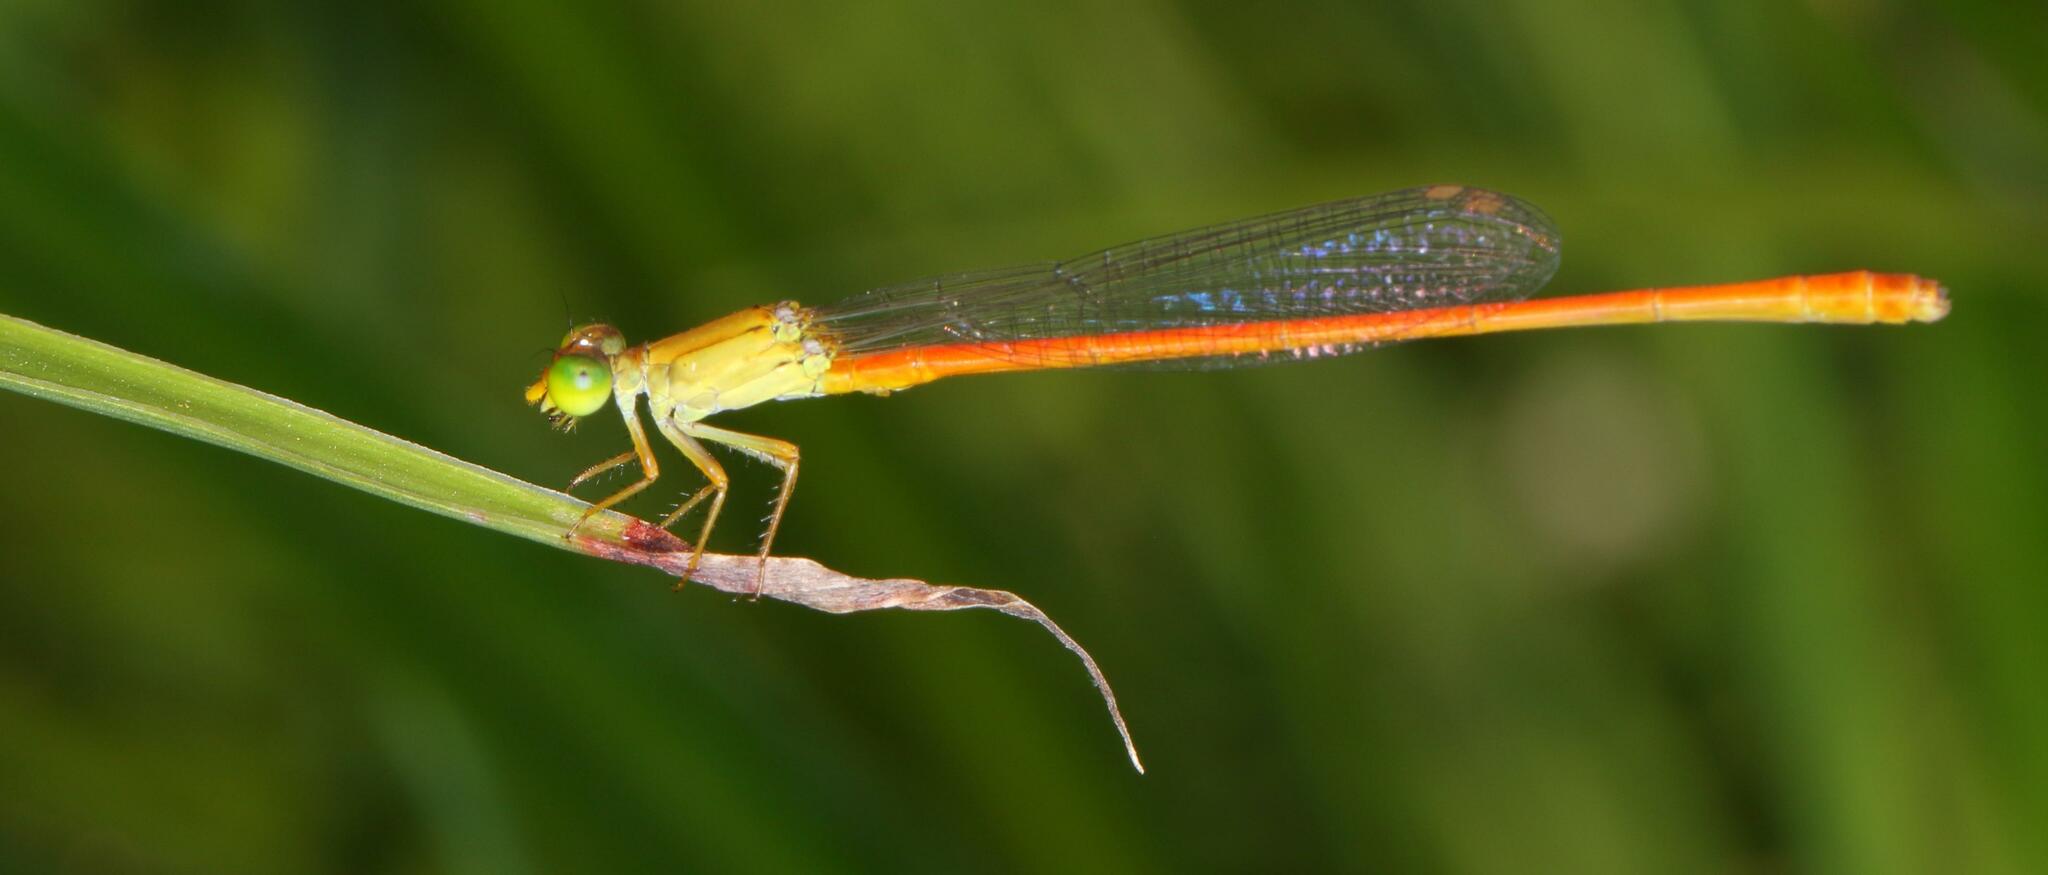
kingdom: Animalia
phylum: Arthropoda
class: Insecta
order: Odonata
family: Coenagrionidae
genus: Ceriagrion
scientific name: Ceriagrion glabrum
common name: Common pond damsel
